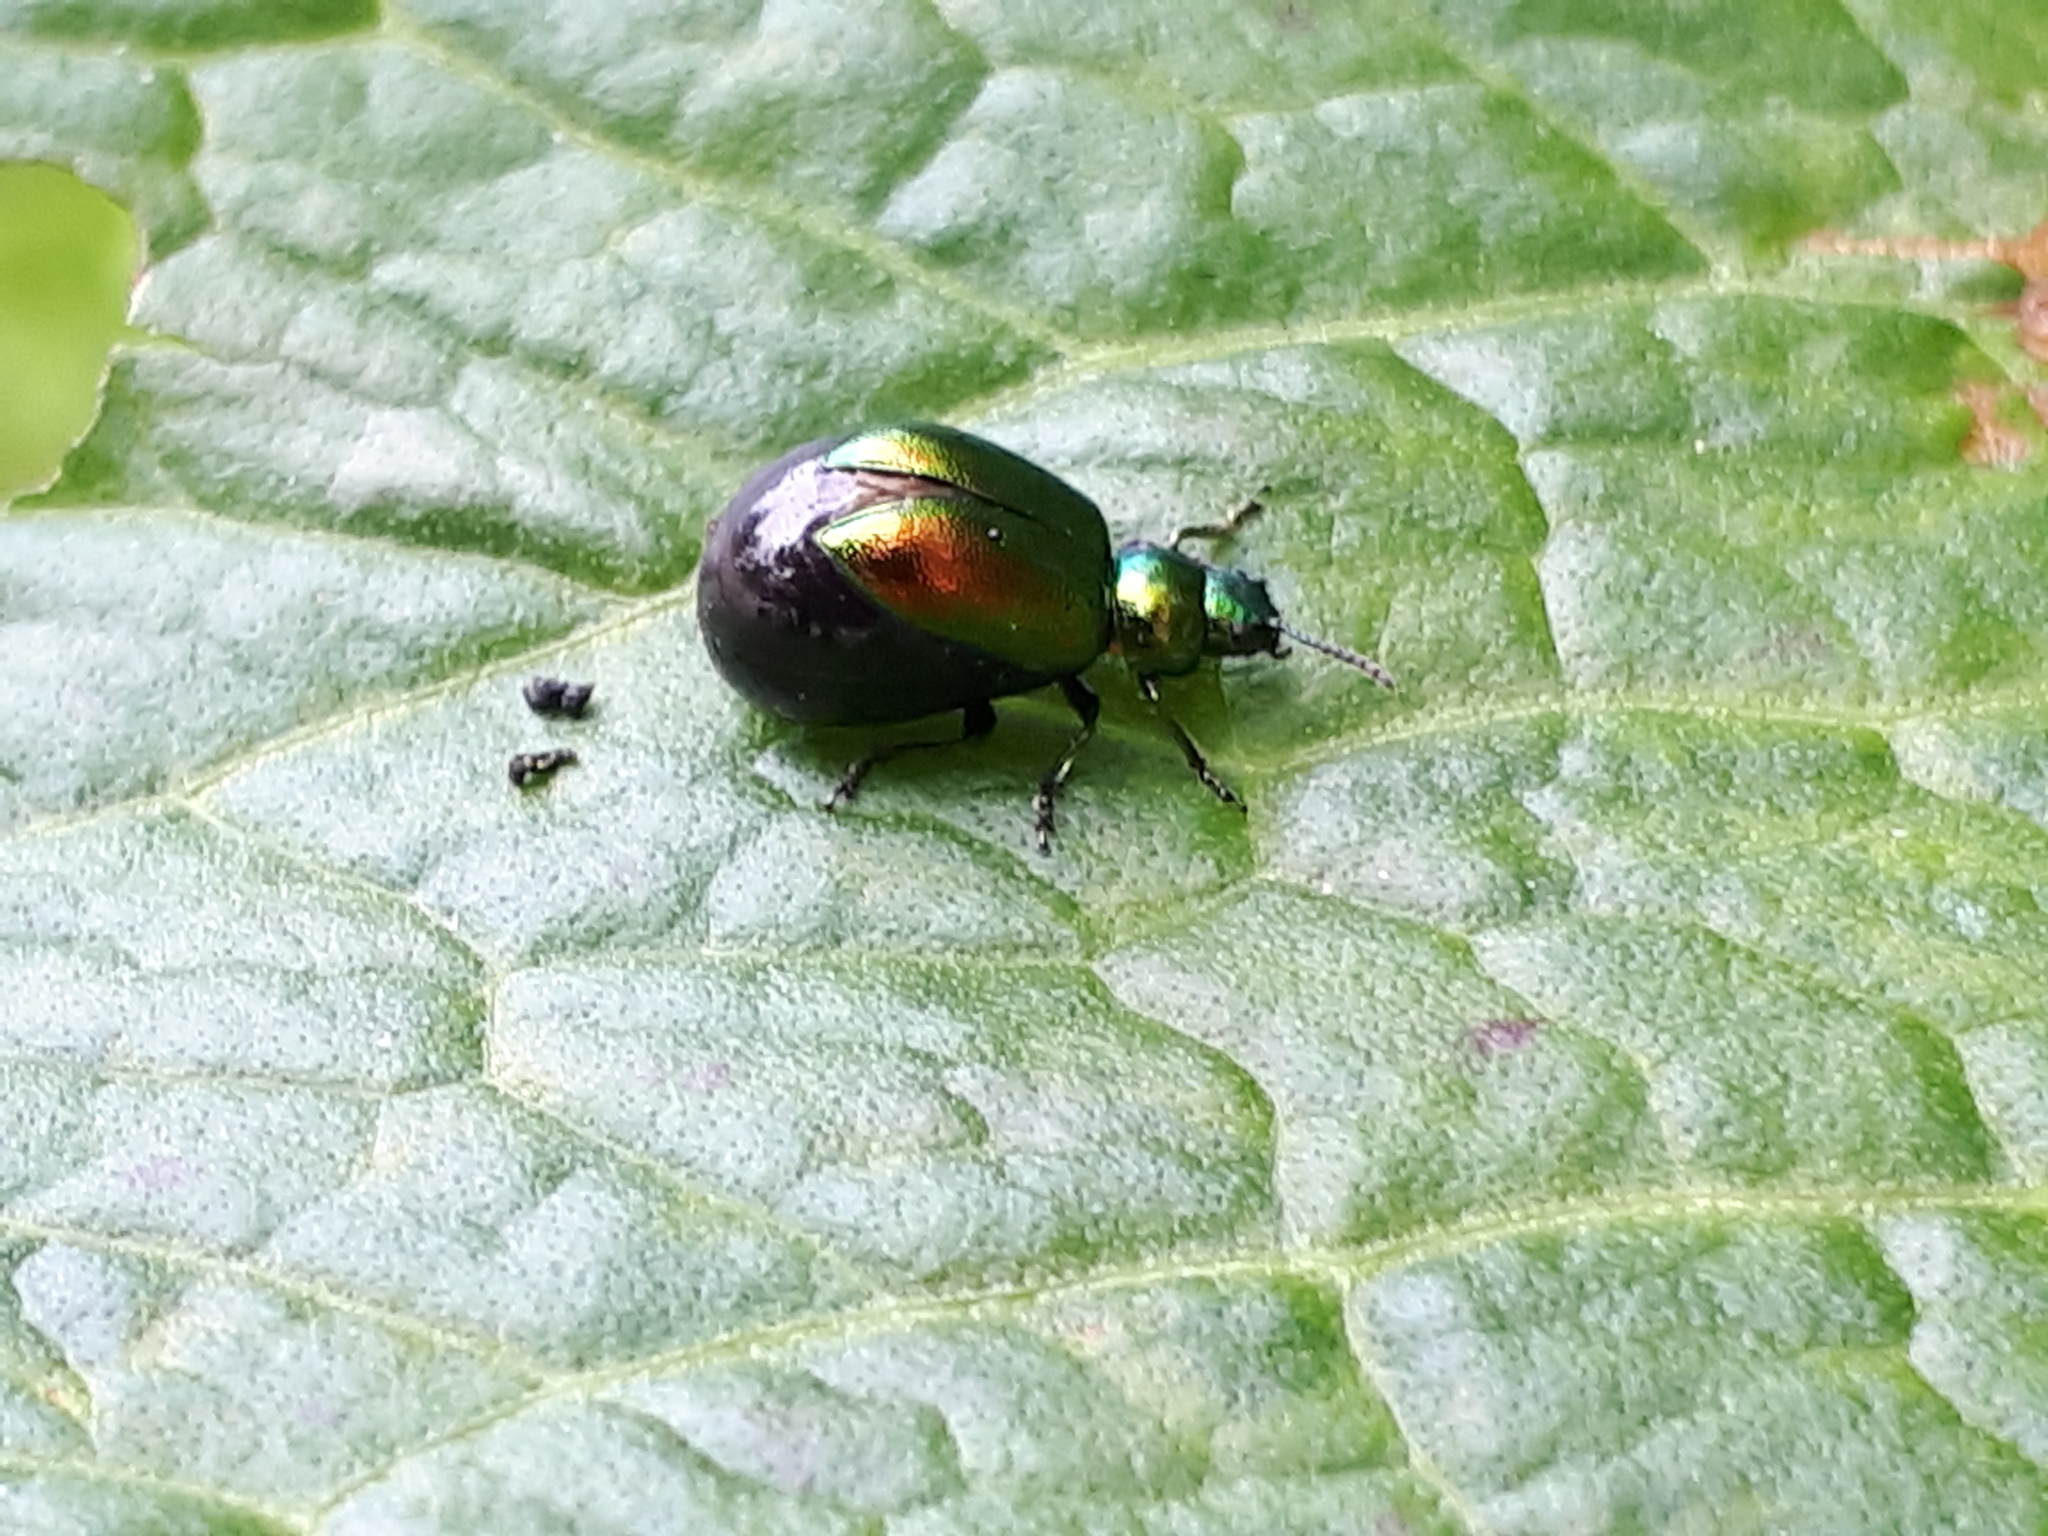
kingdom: Animalia
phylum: Arthropoda
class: Insecta
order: Coleoptera
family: Chrysomelidae
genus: Gastrophysa
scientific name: Gastrophysa viridula
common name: Green dock beetle
